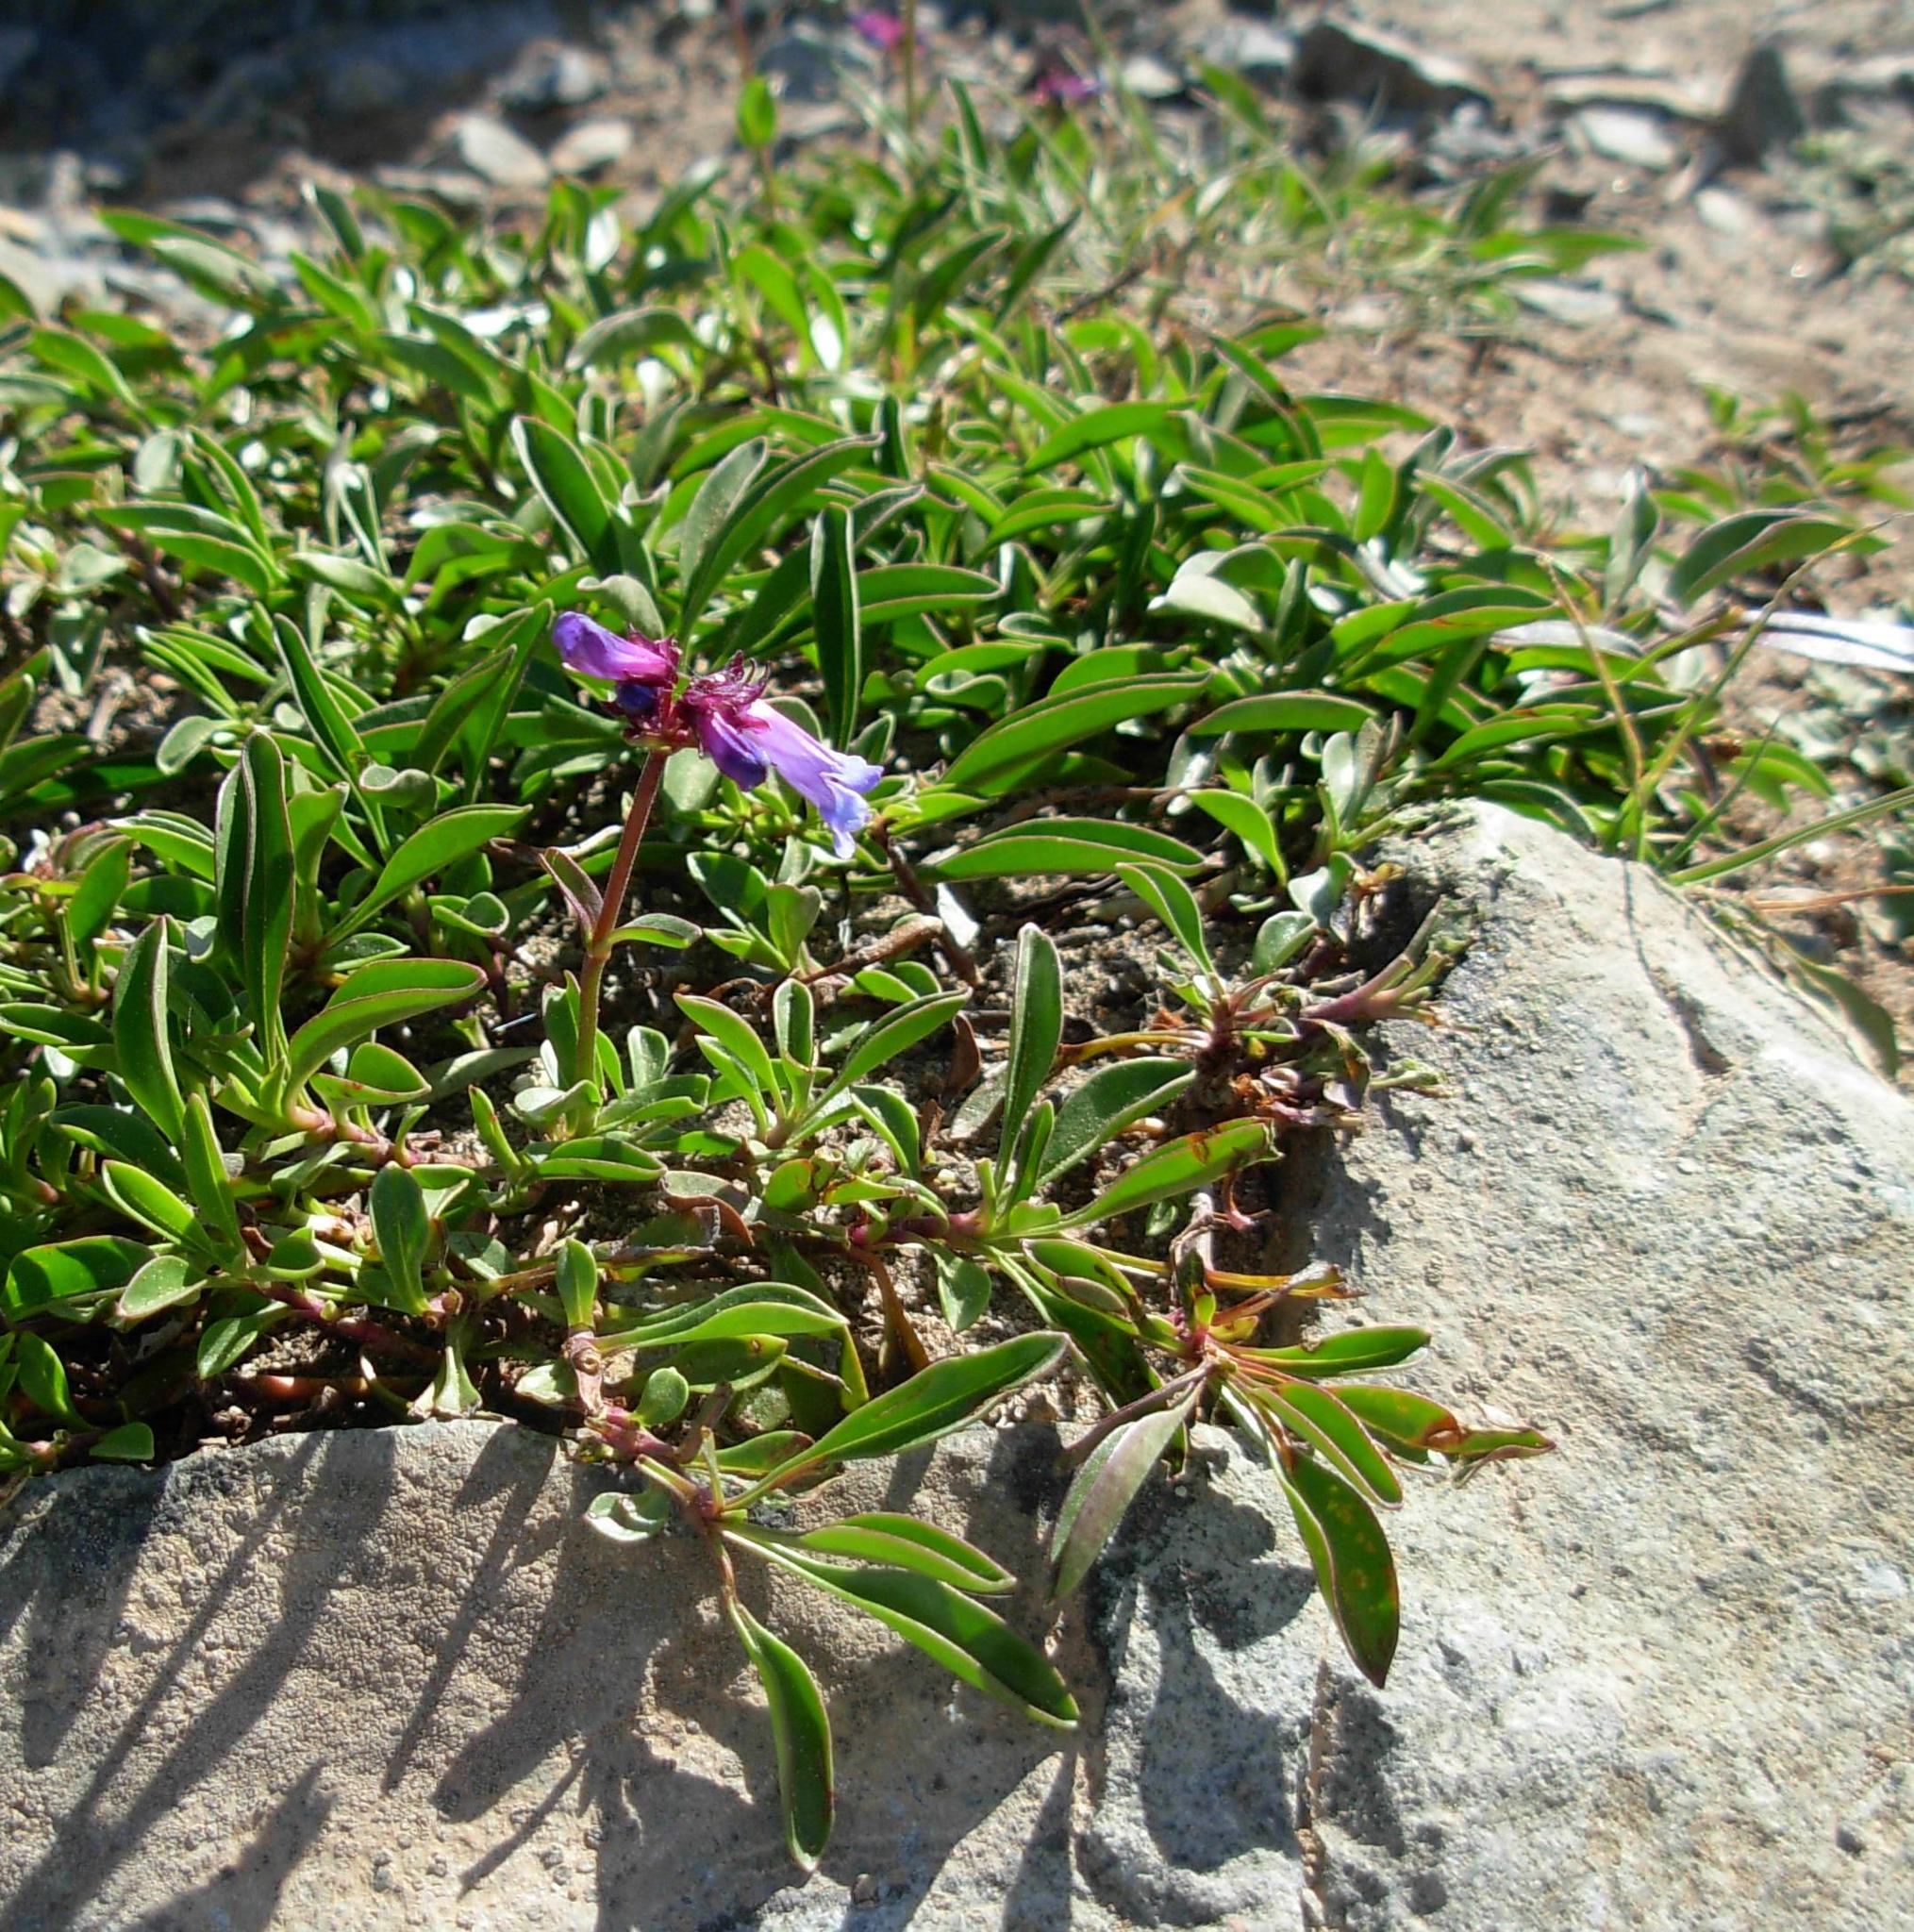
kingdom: Plantae
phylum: Tracheophyta
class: Magnoliopsida
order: Lamiales
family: Plantaginaceae
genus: Penstemon
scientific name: Penstemon procerus
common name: Small-flower penstemon
